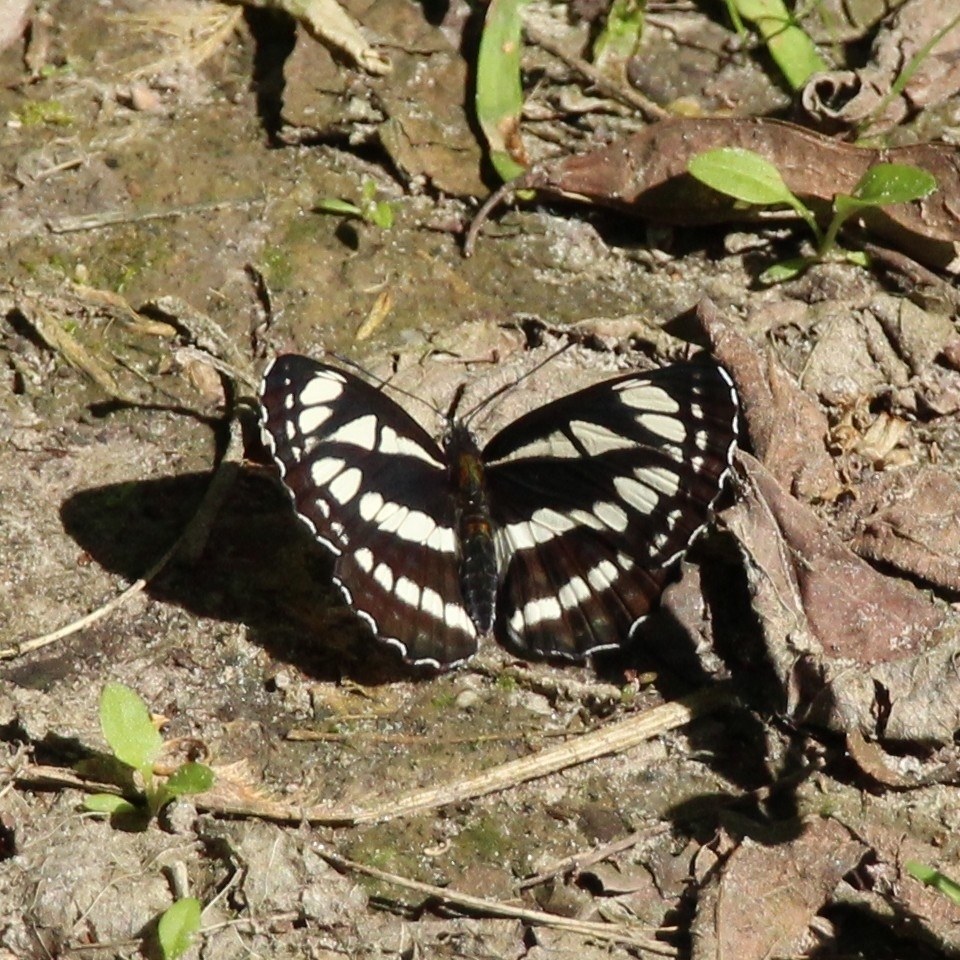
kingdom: Animalia
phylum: Arthropoda
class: Insecta
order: Lepidoptera
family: Nymphalidae
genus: Neptis
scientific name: Neptis sappho
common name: Common glider
